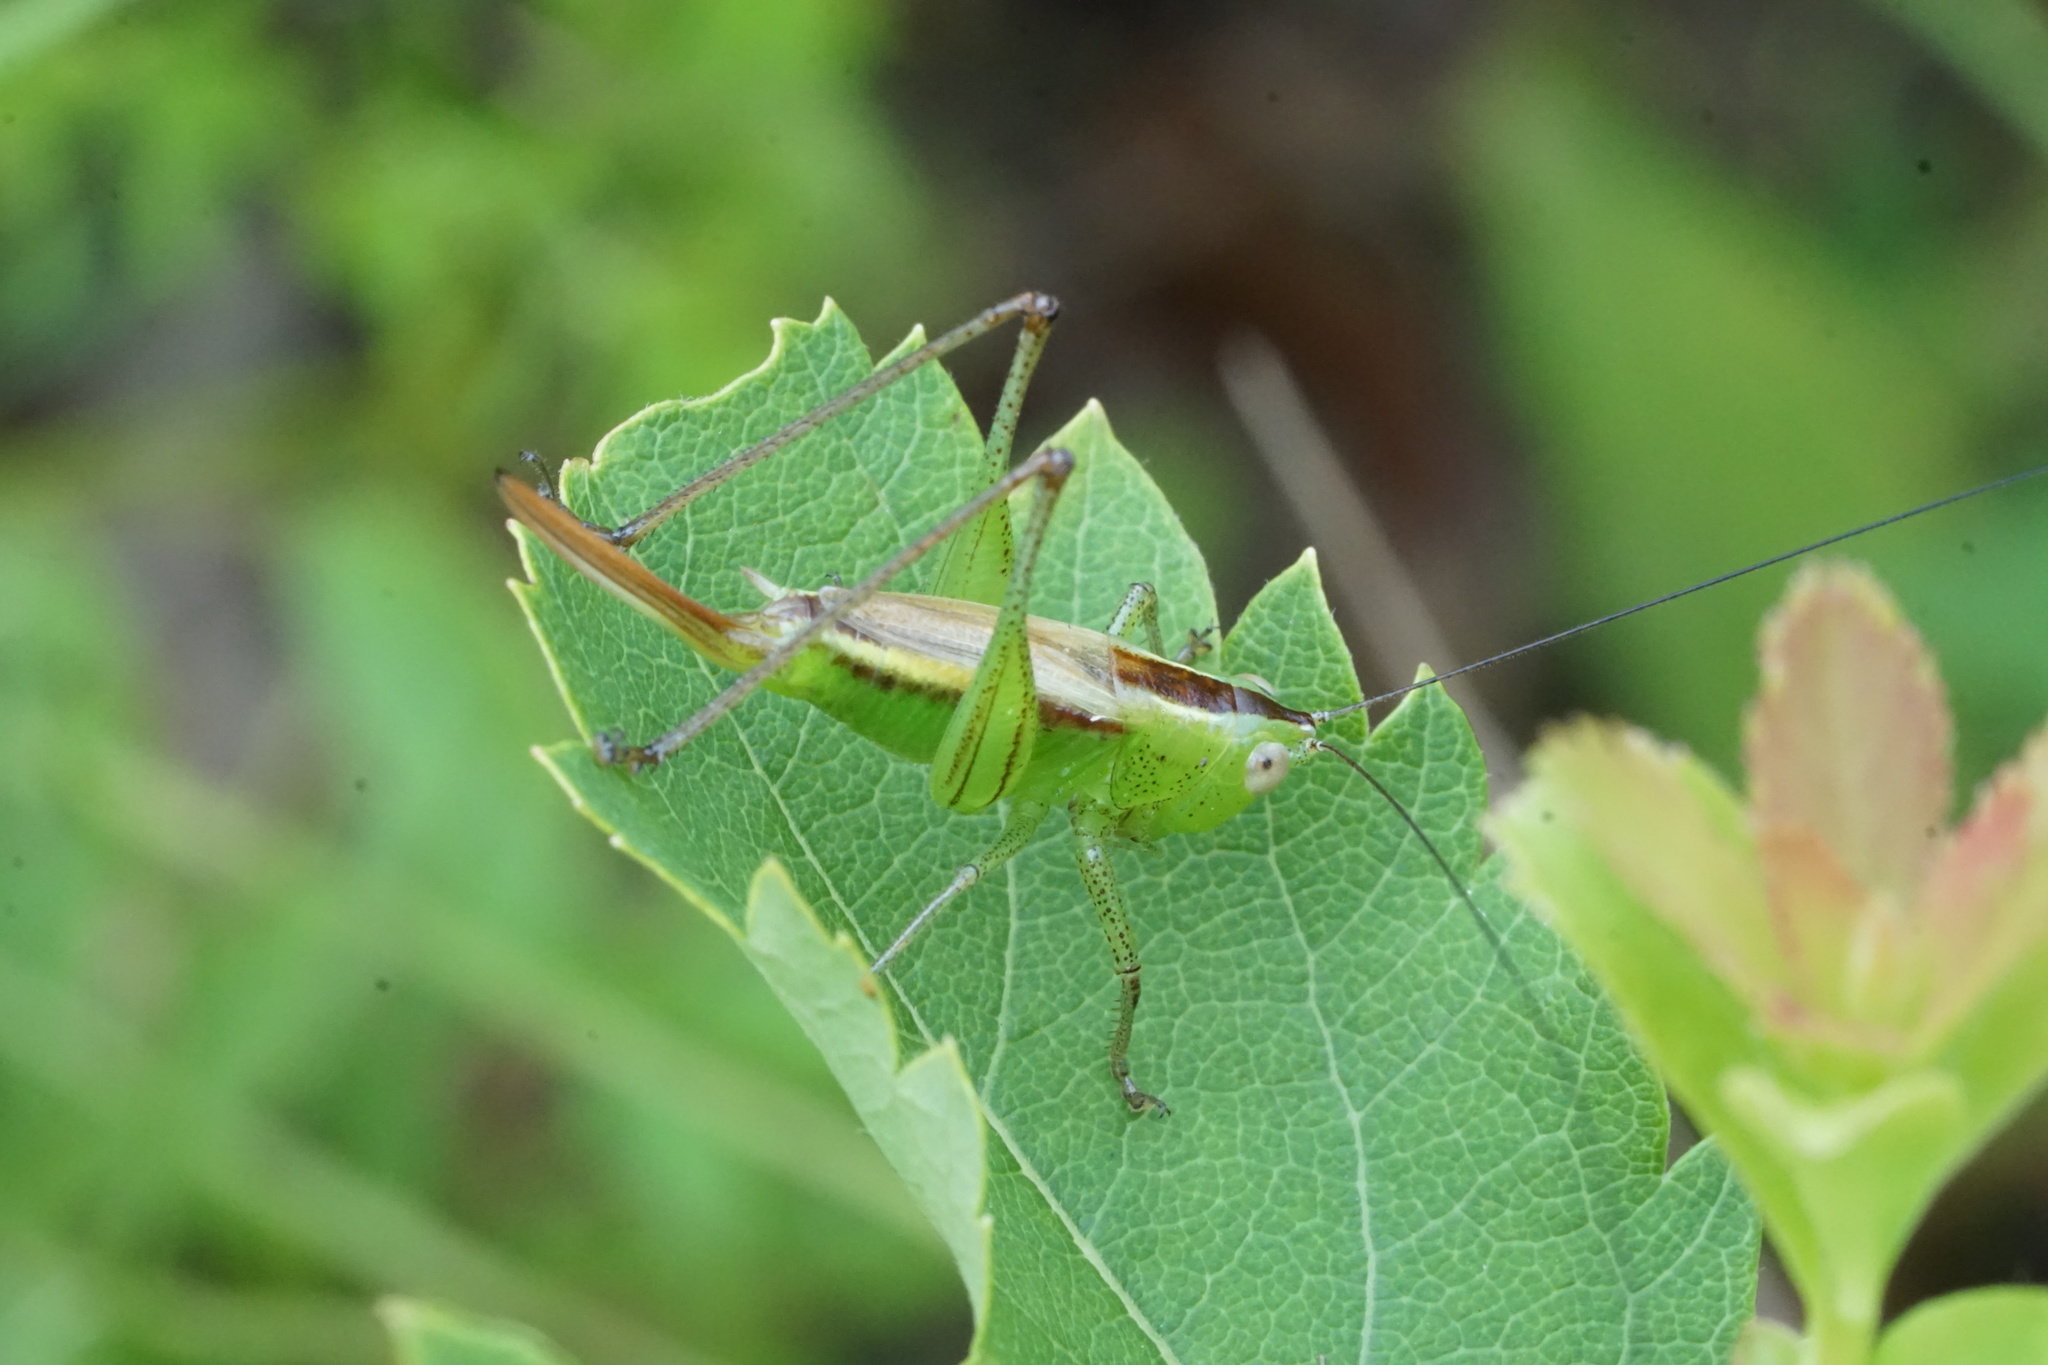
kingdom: Animalia
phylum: Arthropoda
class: Insecta
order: Orthoptera
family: Tettigoniidae
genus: Conocephalus
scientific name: Conocephalus brevipennis
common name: Short-winged meadow katydid
